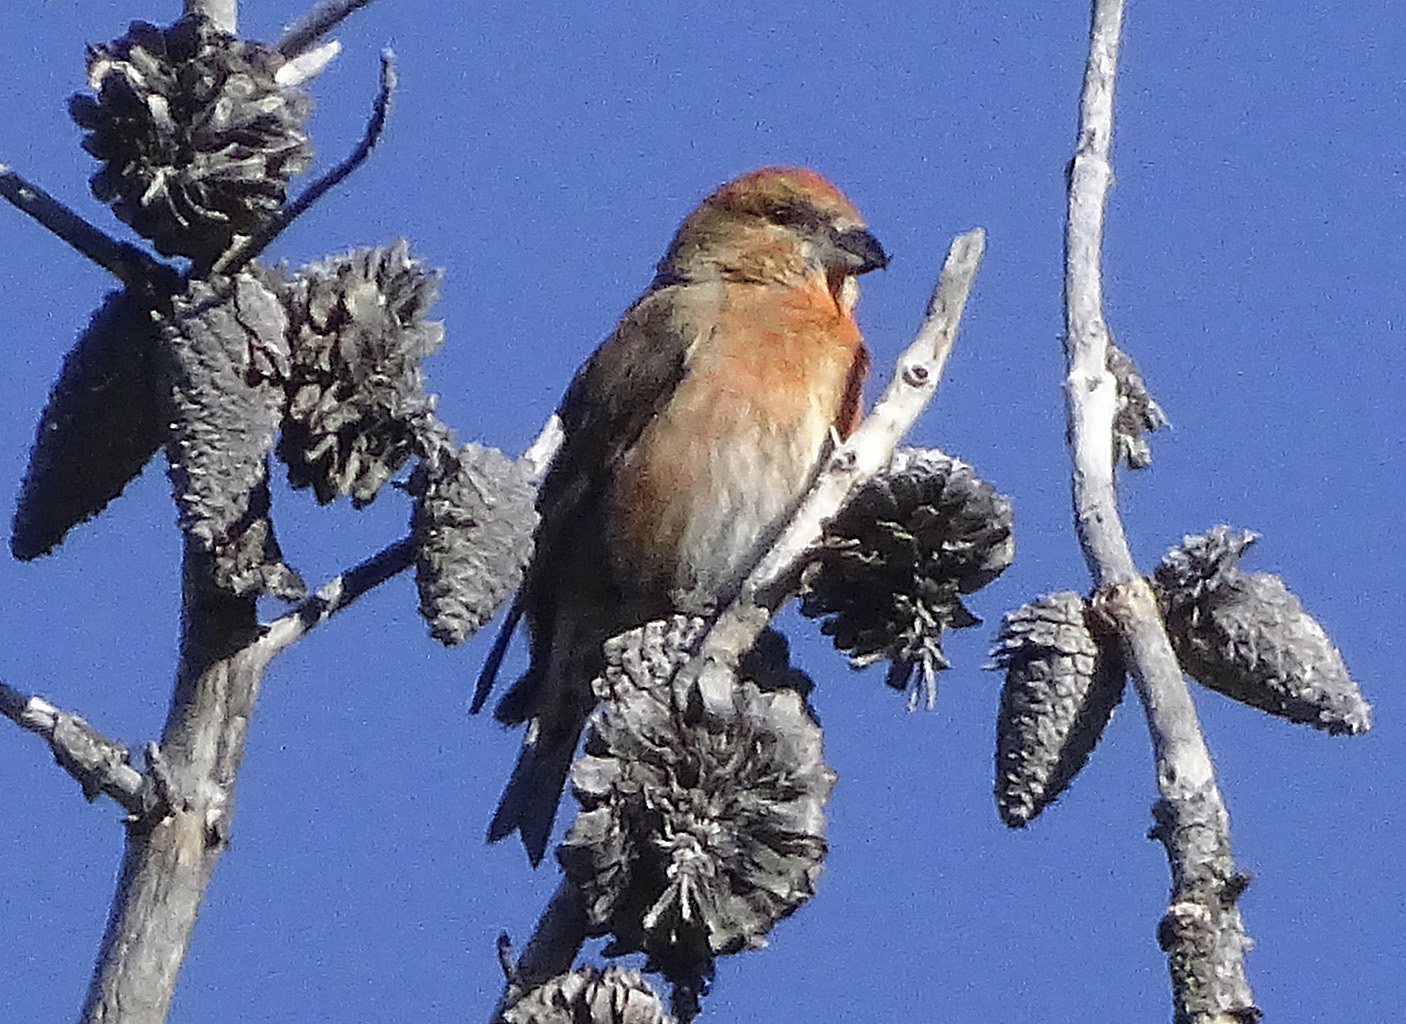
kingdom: Animalia
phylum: Chordata
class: Aves
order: Passeriformes
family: Fringillidae
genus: Loxia
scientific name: Loxia sinesciuris
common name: Cassia crossbill
